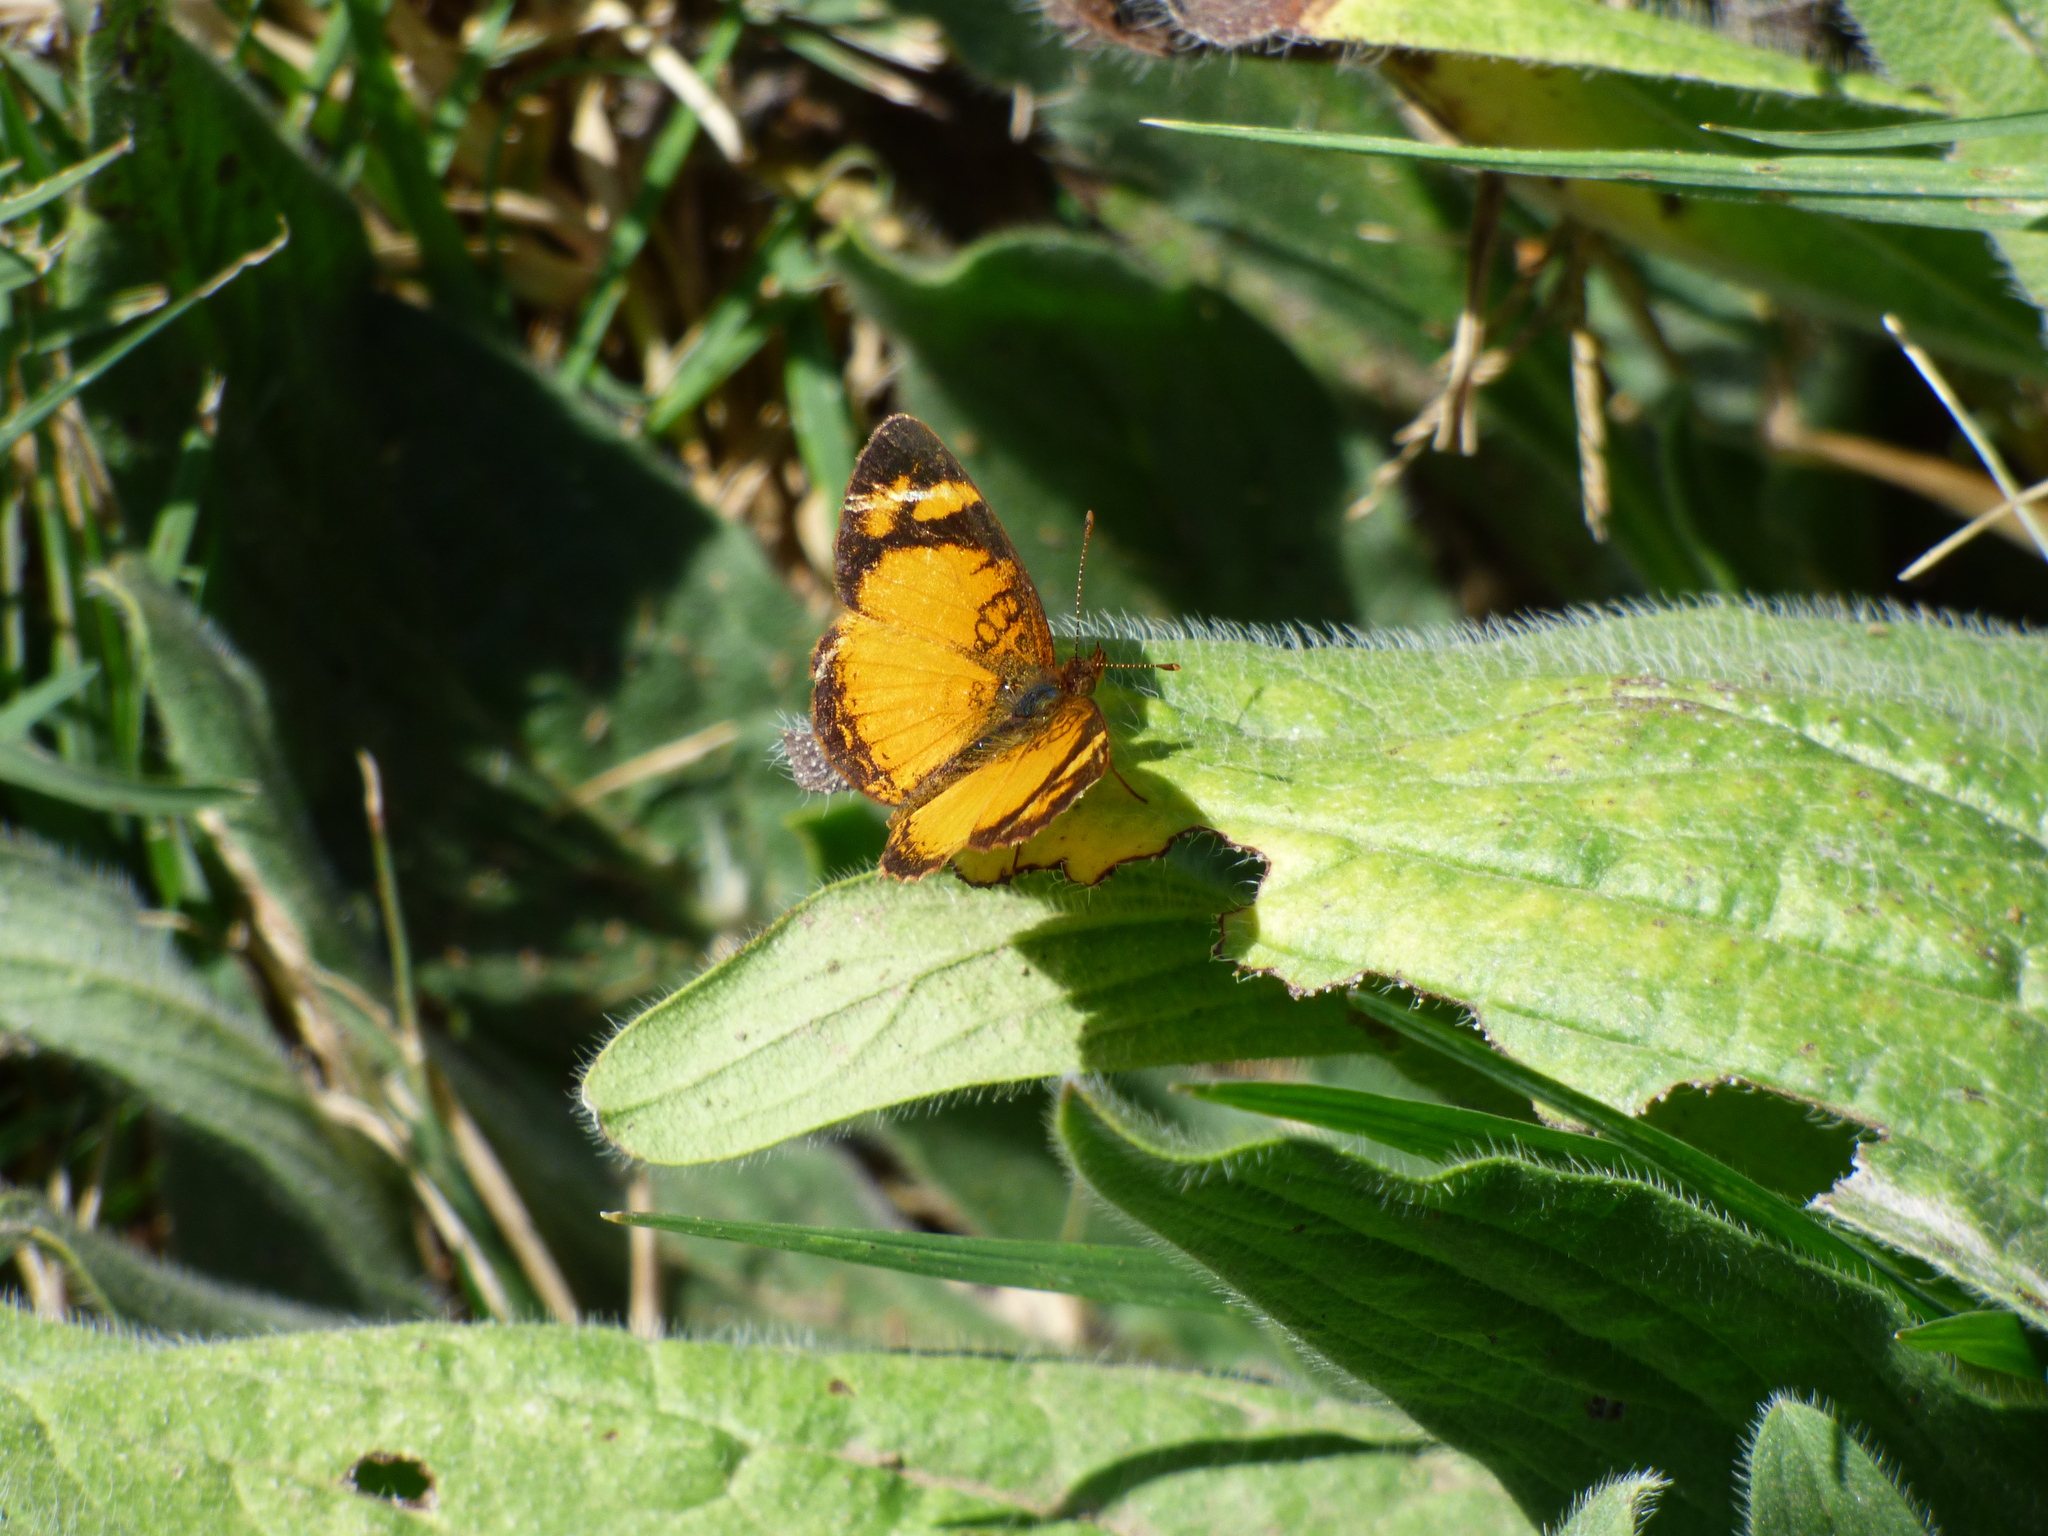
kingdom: Animalia
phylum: Arthropoda
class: Insecta
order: Lepidoptera
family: Nymphalidae
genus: Tegosa
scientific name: Tegosa claudina
